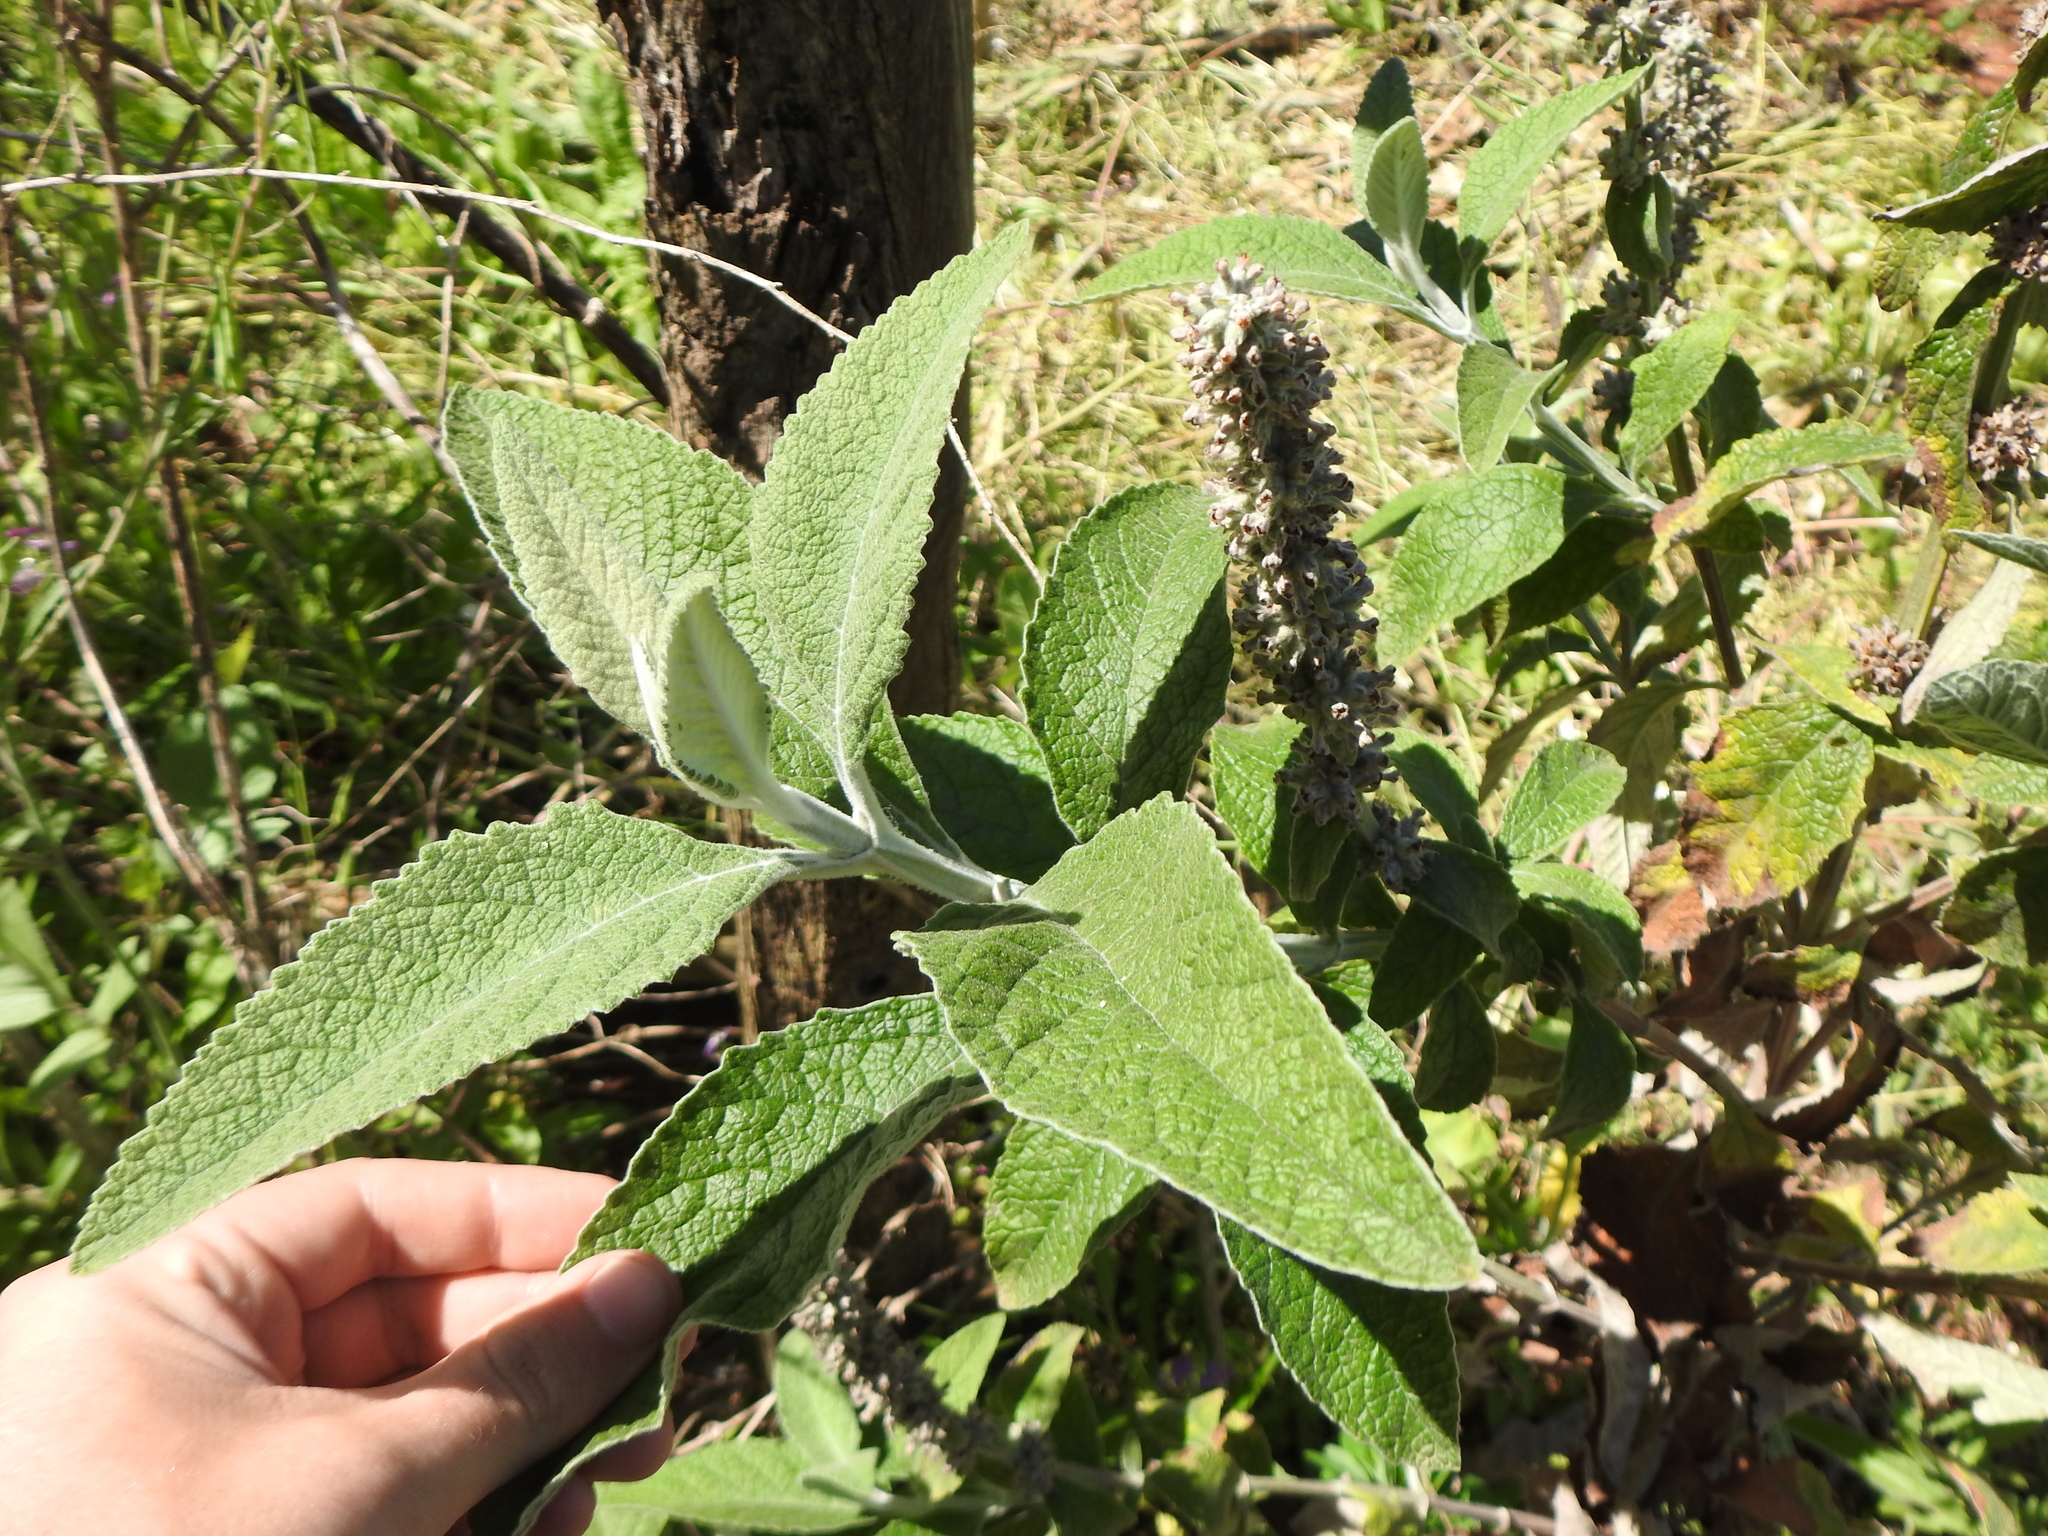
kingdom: Plantae
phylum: Tracheophyta
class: Magnoliopsida
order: Lamiales
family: Scrophulariaceae
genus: Buddleja
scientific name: Buddleja stachyoides
